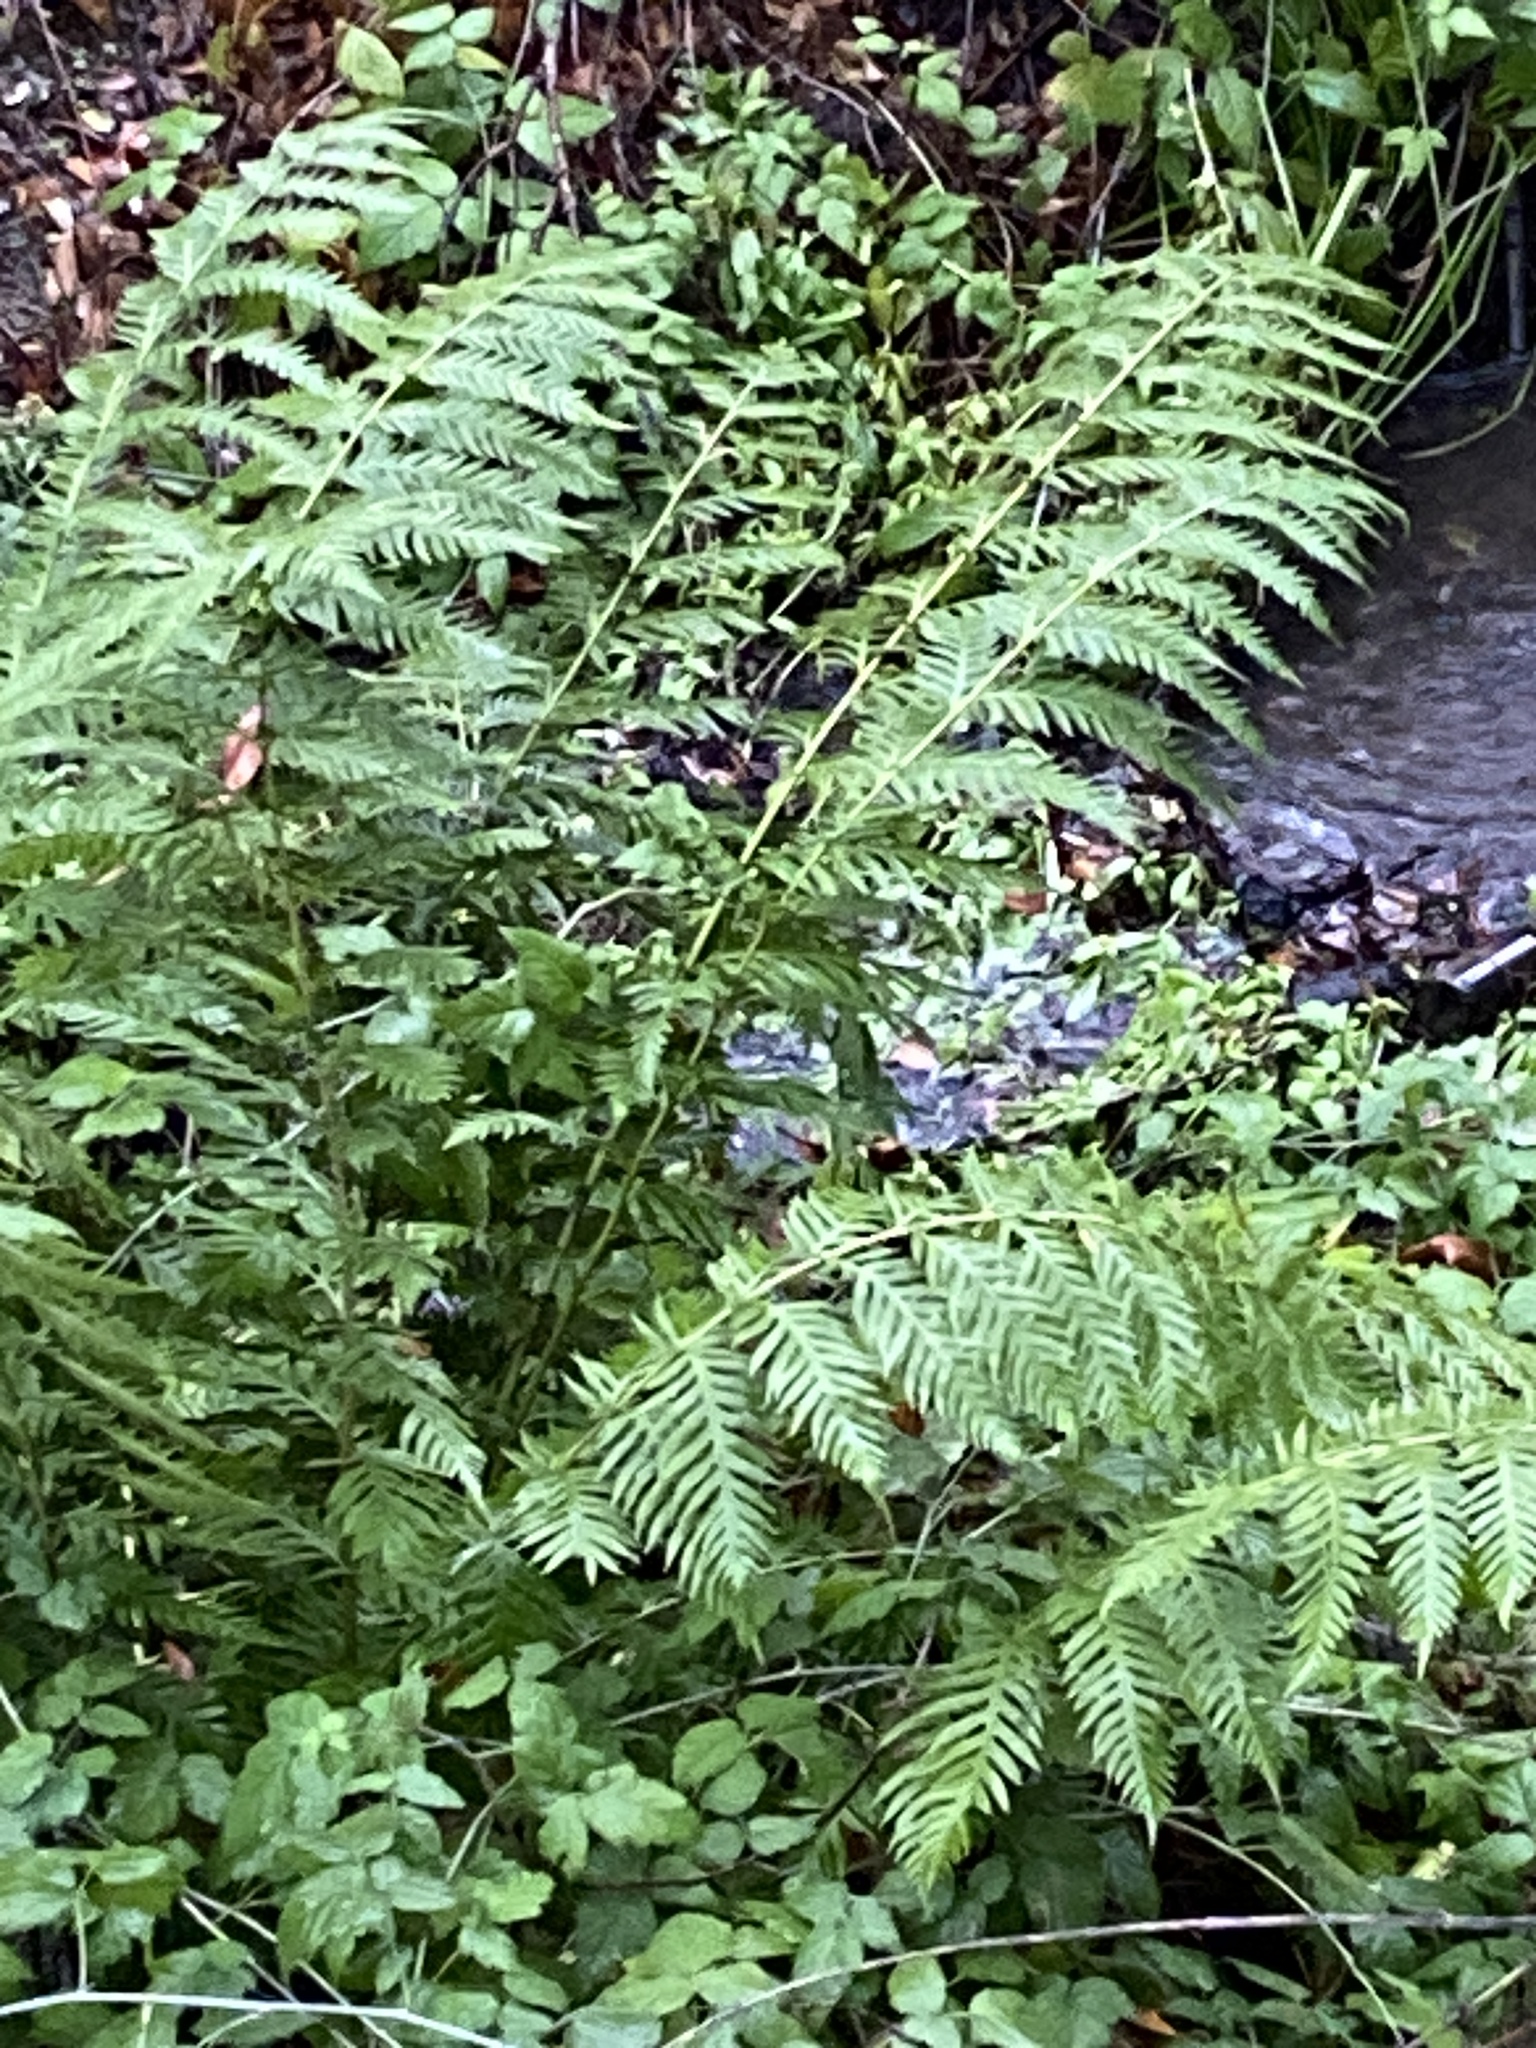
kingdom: Plantae
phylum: Tracheophyta
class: Polypodiopsida
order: Polypodiales
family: Blechnaceae
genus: Woodwardia
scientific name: Woodwardia fimbriata
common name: Giant chain fern
